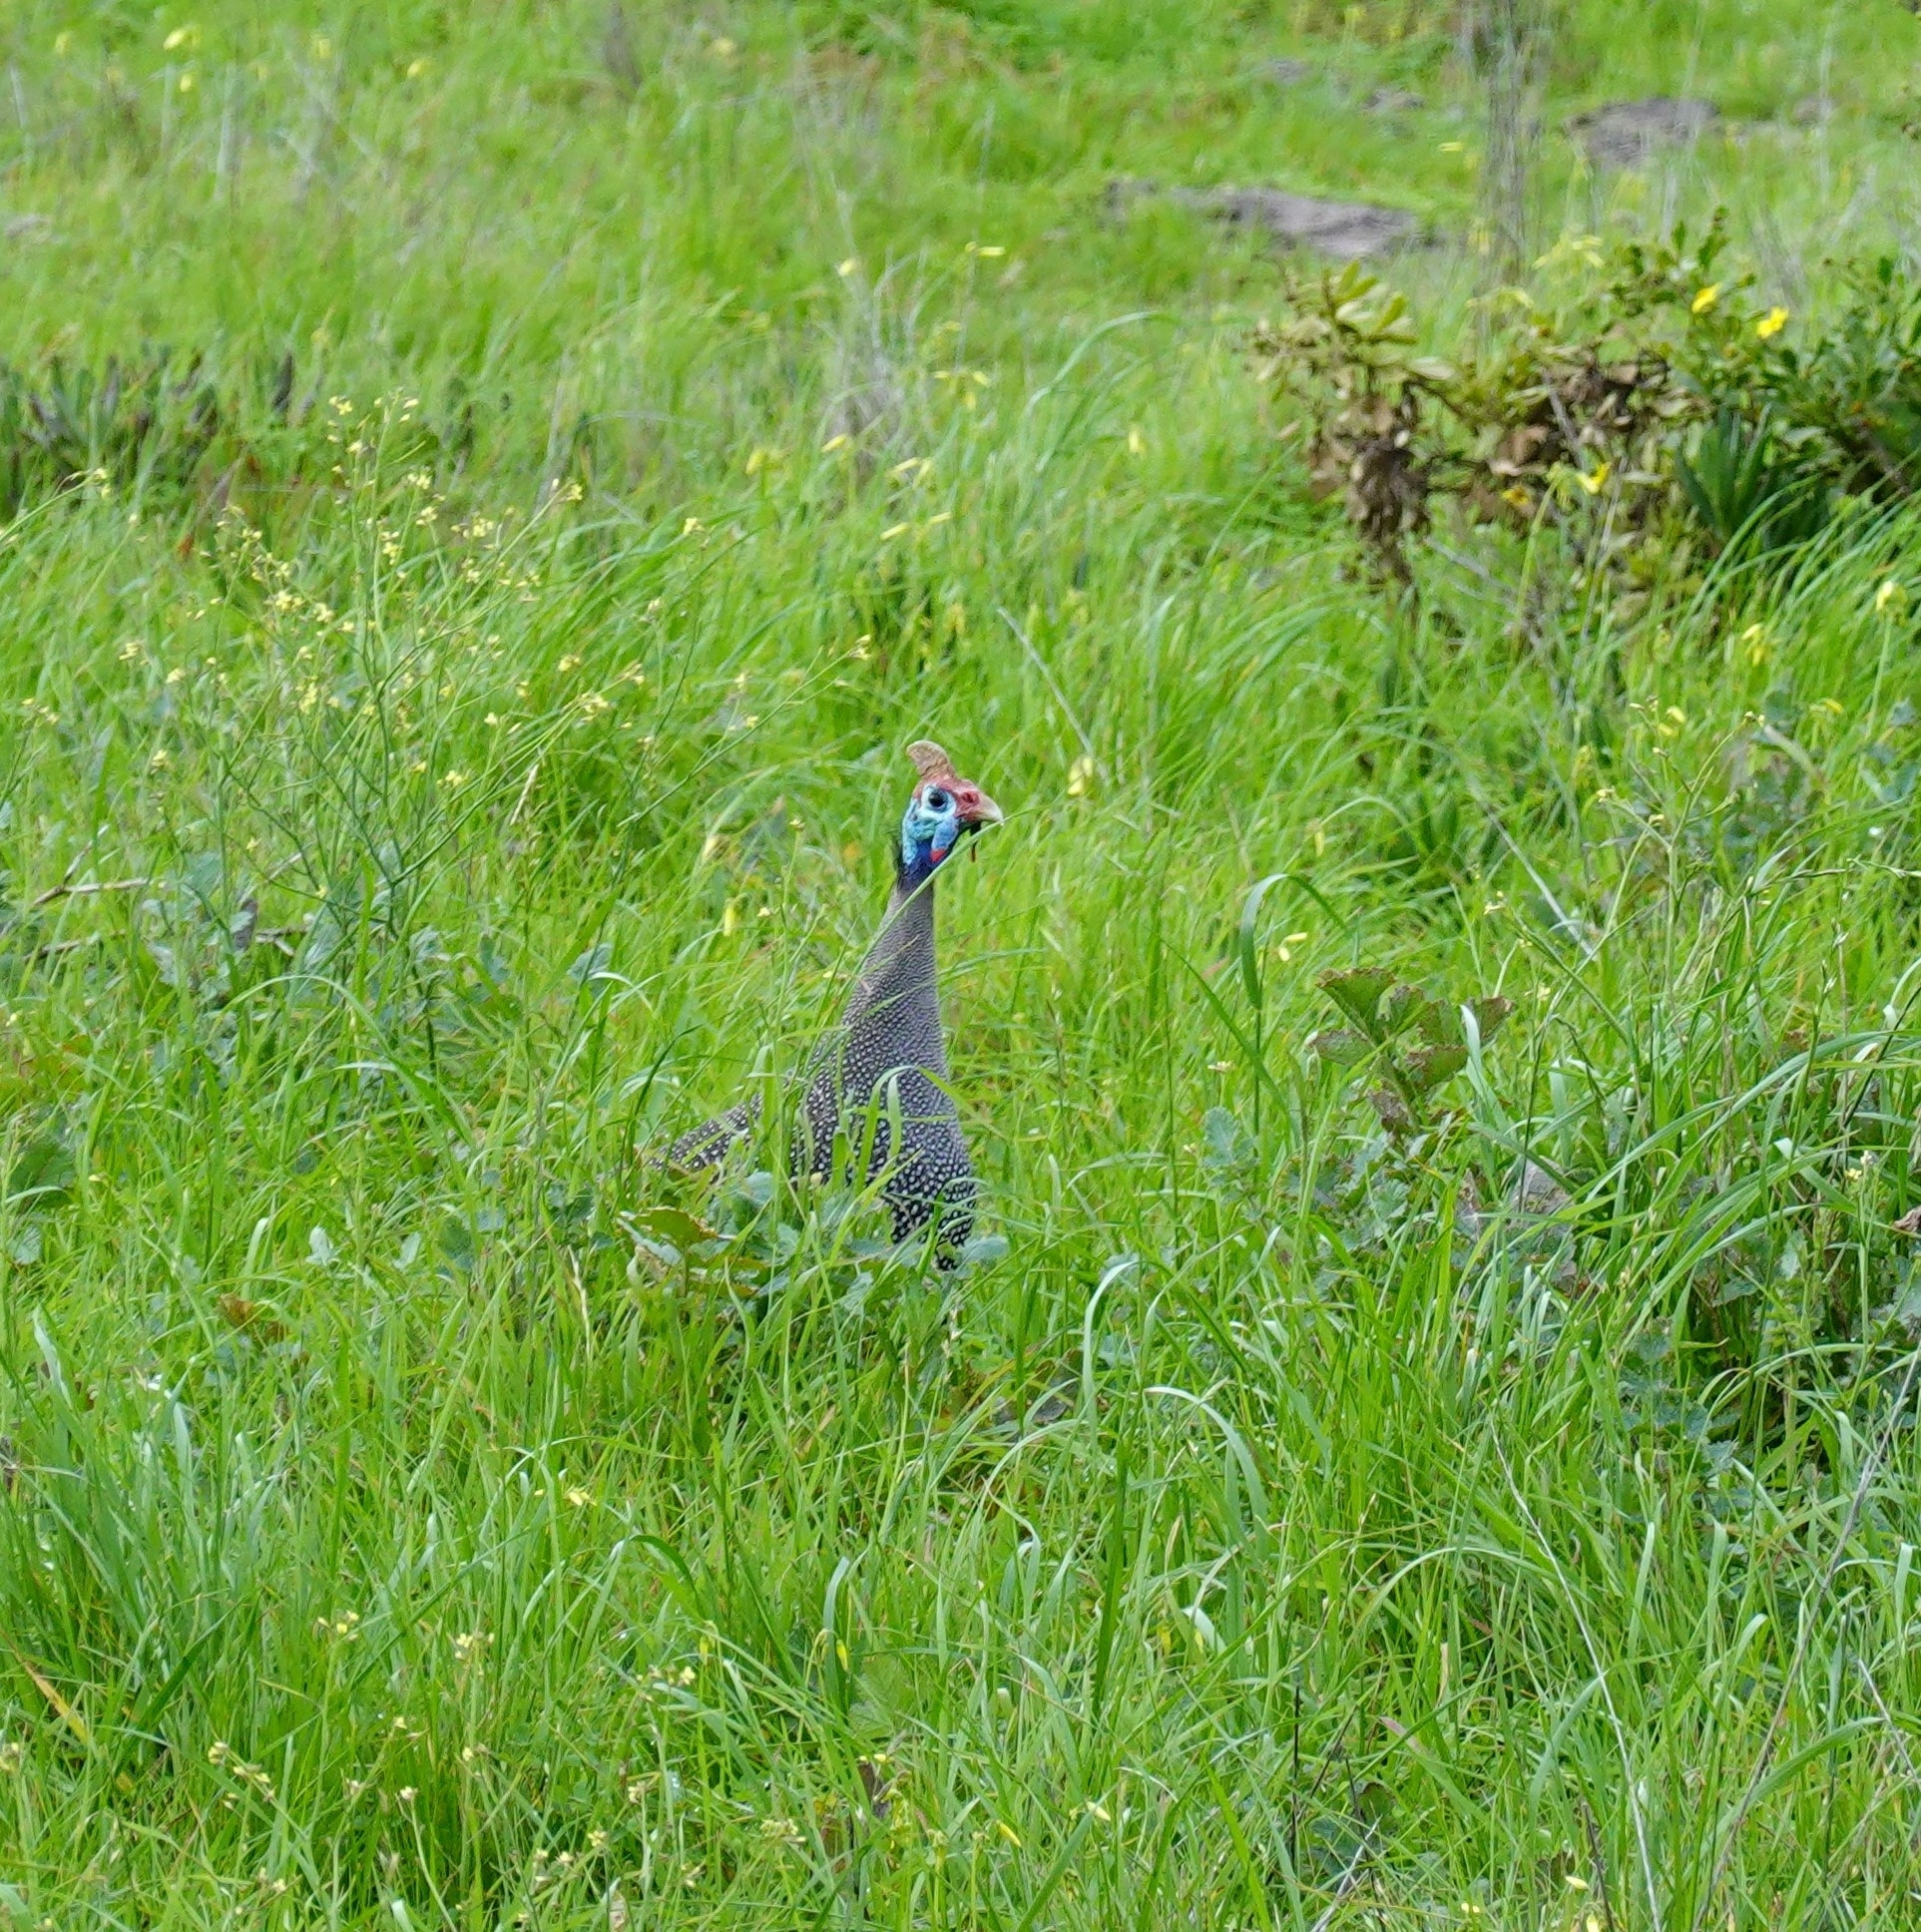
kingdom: Animalia
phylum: Chordata
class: Aves
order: Galliformes
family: Numididae
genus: Numida
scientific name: Numida meleagris
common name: Helmeted guineafowl
